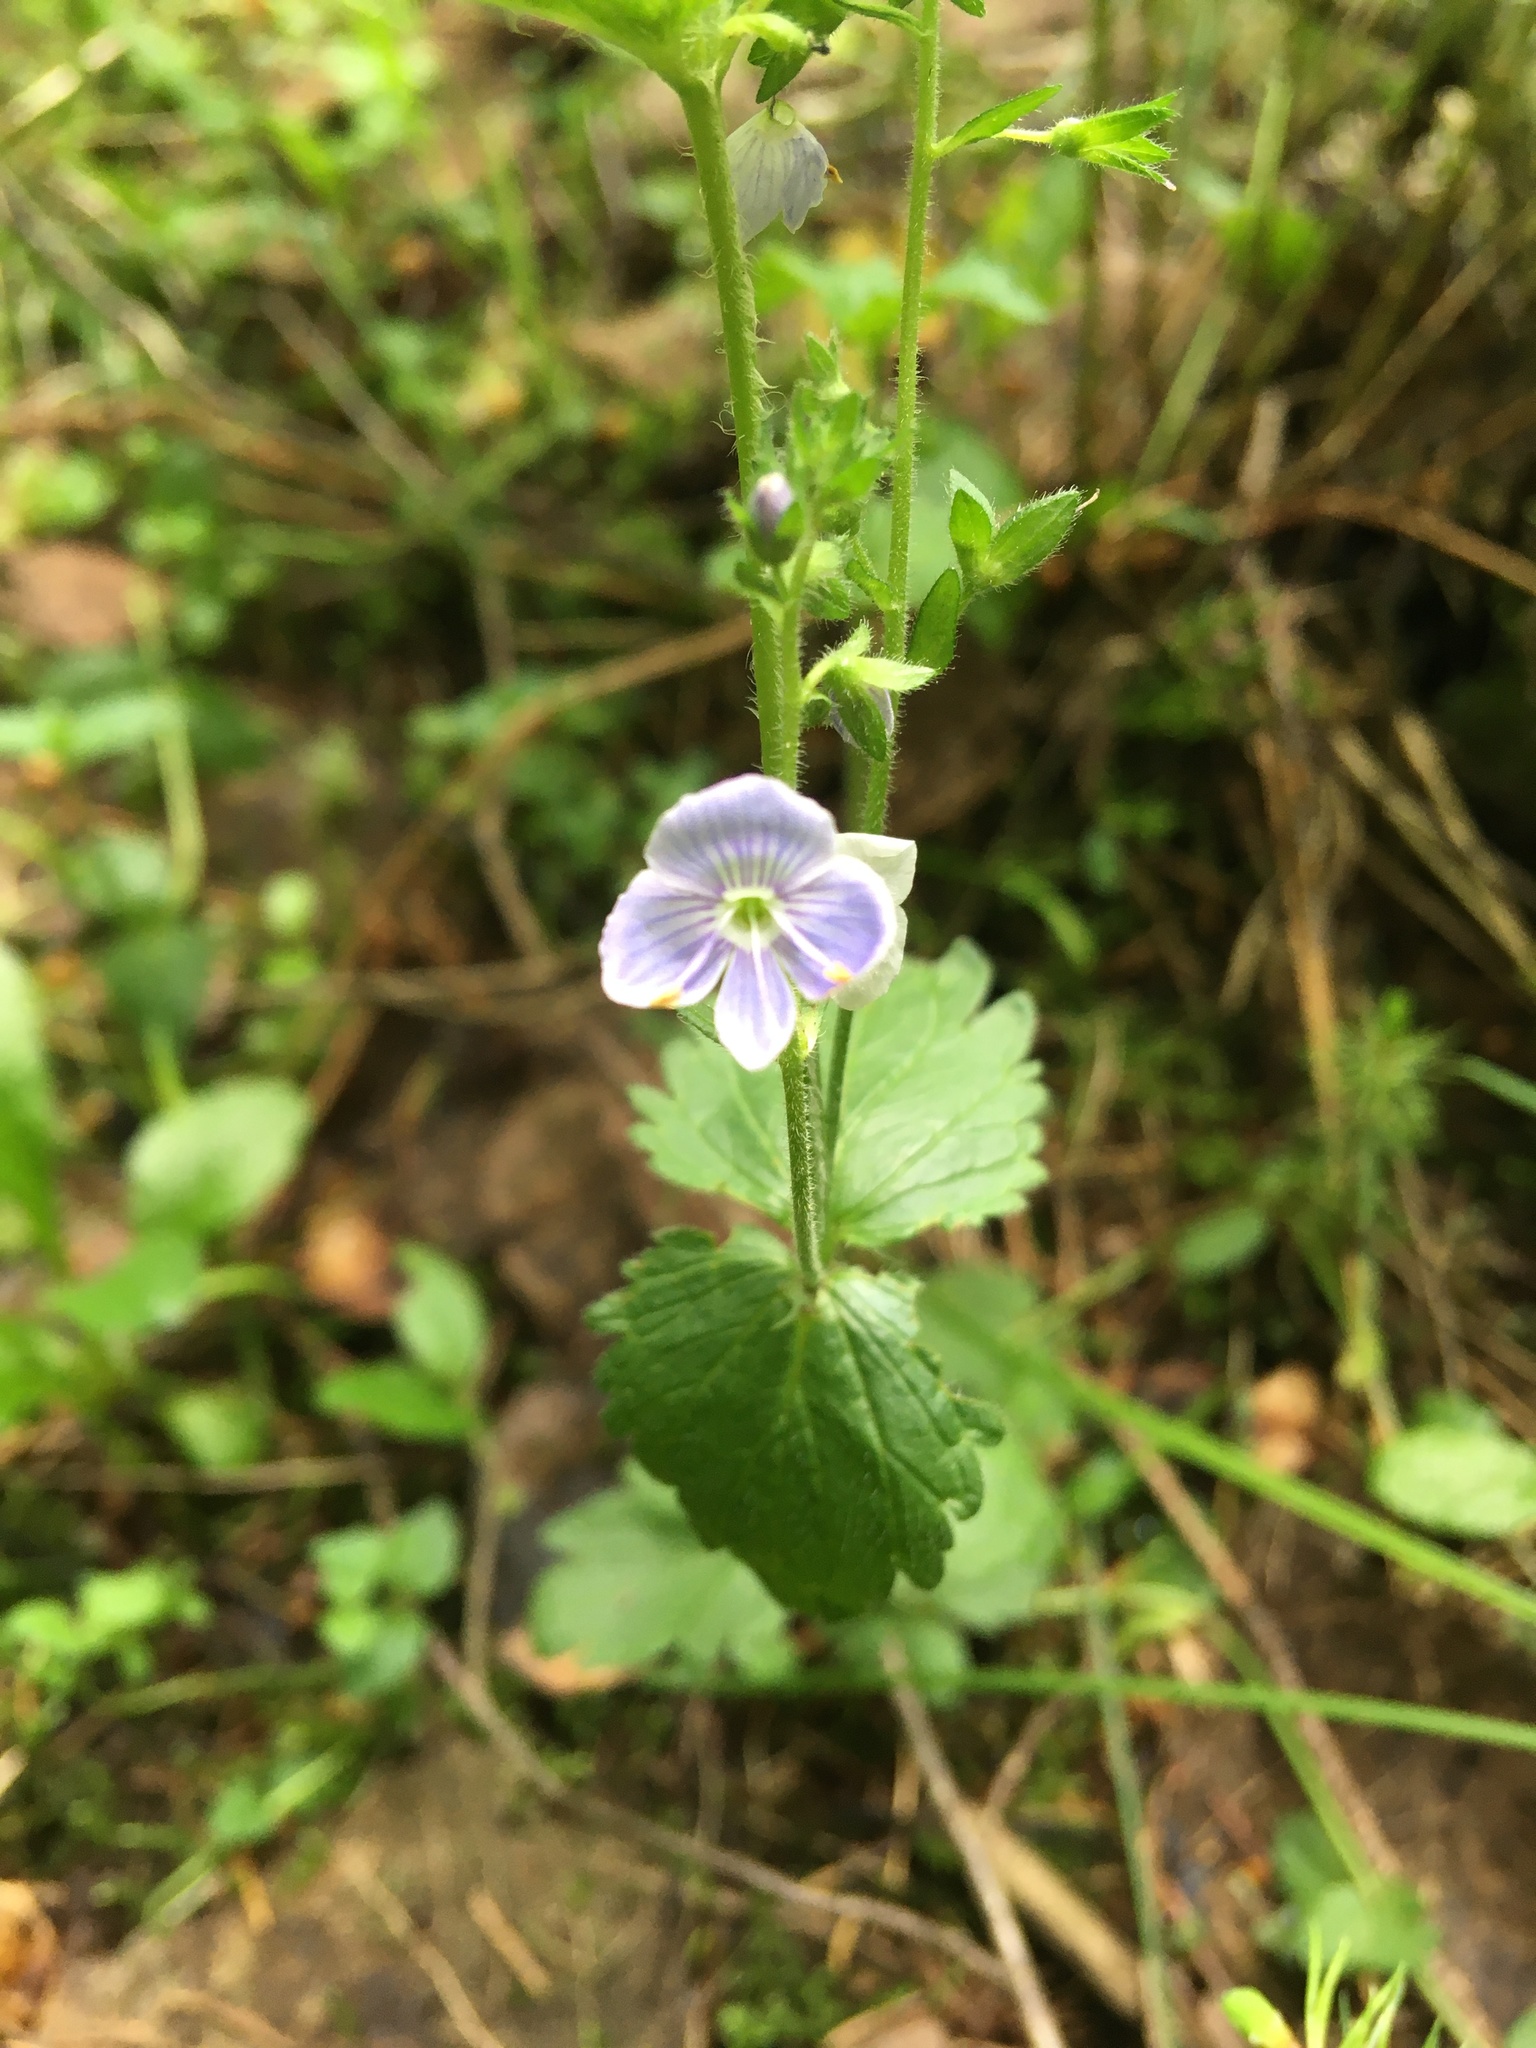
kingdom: Plantae
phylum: Tracheophyta
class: Magnoliopsida
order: Lamiales
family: Plantaginaceae
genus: Veronica
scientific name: Veronica chamaedrys
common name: Germander speedwell
